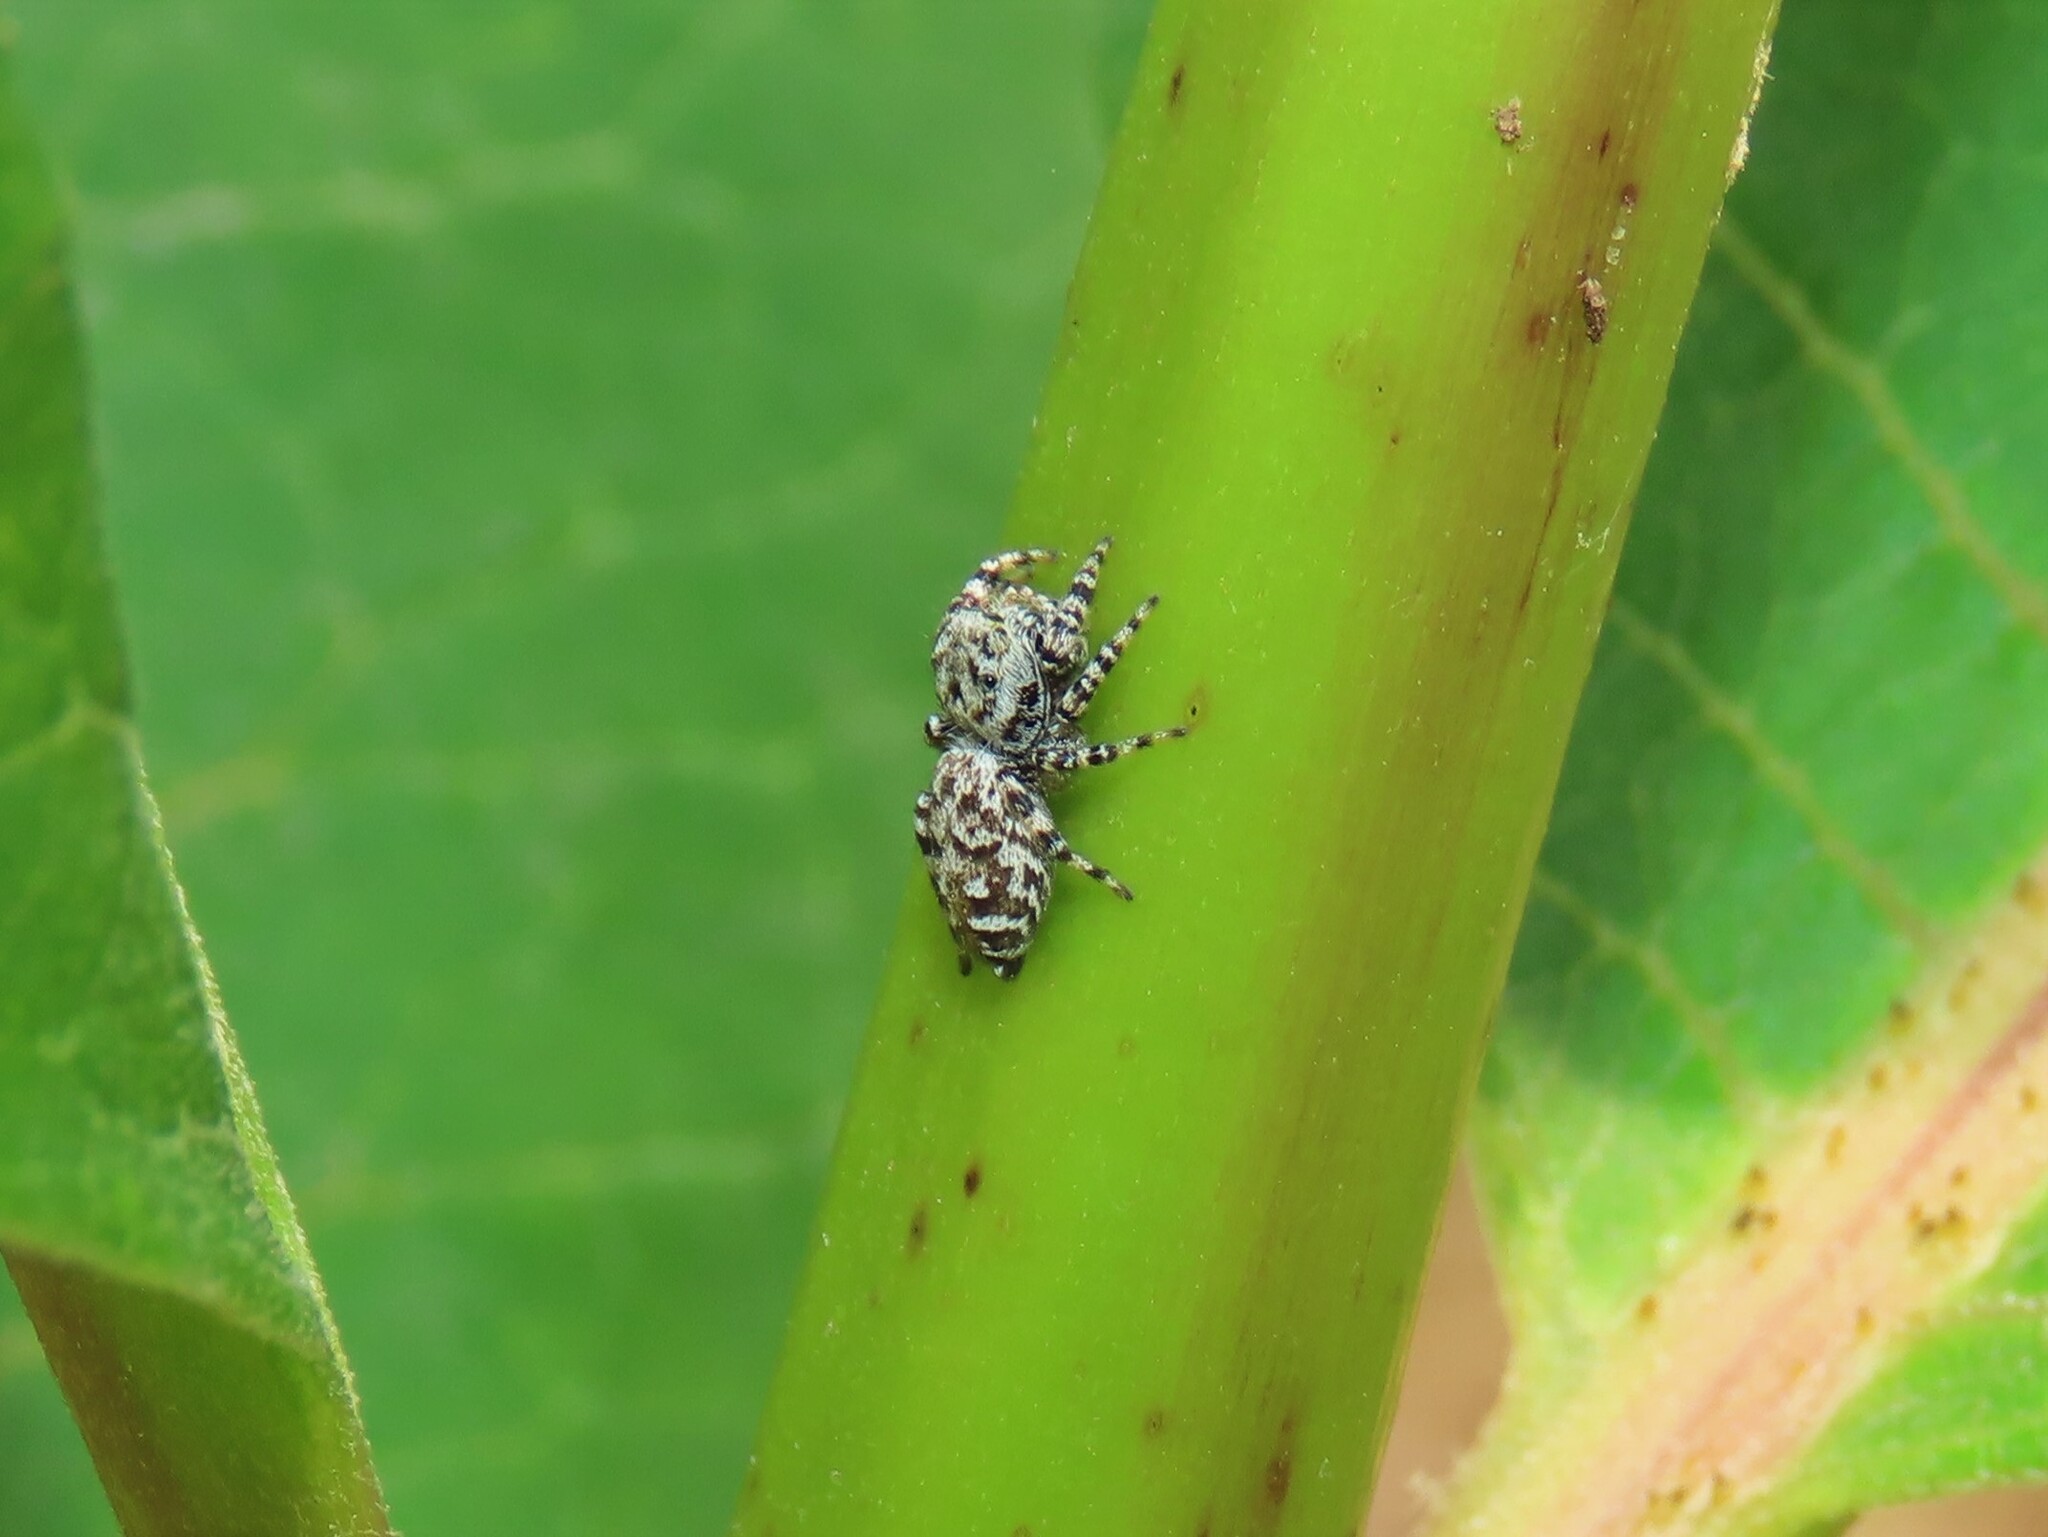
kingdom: Animalia
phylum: Arthropoda
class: Arachnida
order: Araneae
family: Salticidae
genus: Pelegrina
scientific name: Pelegrina galathea
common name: Jumping spiders
